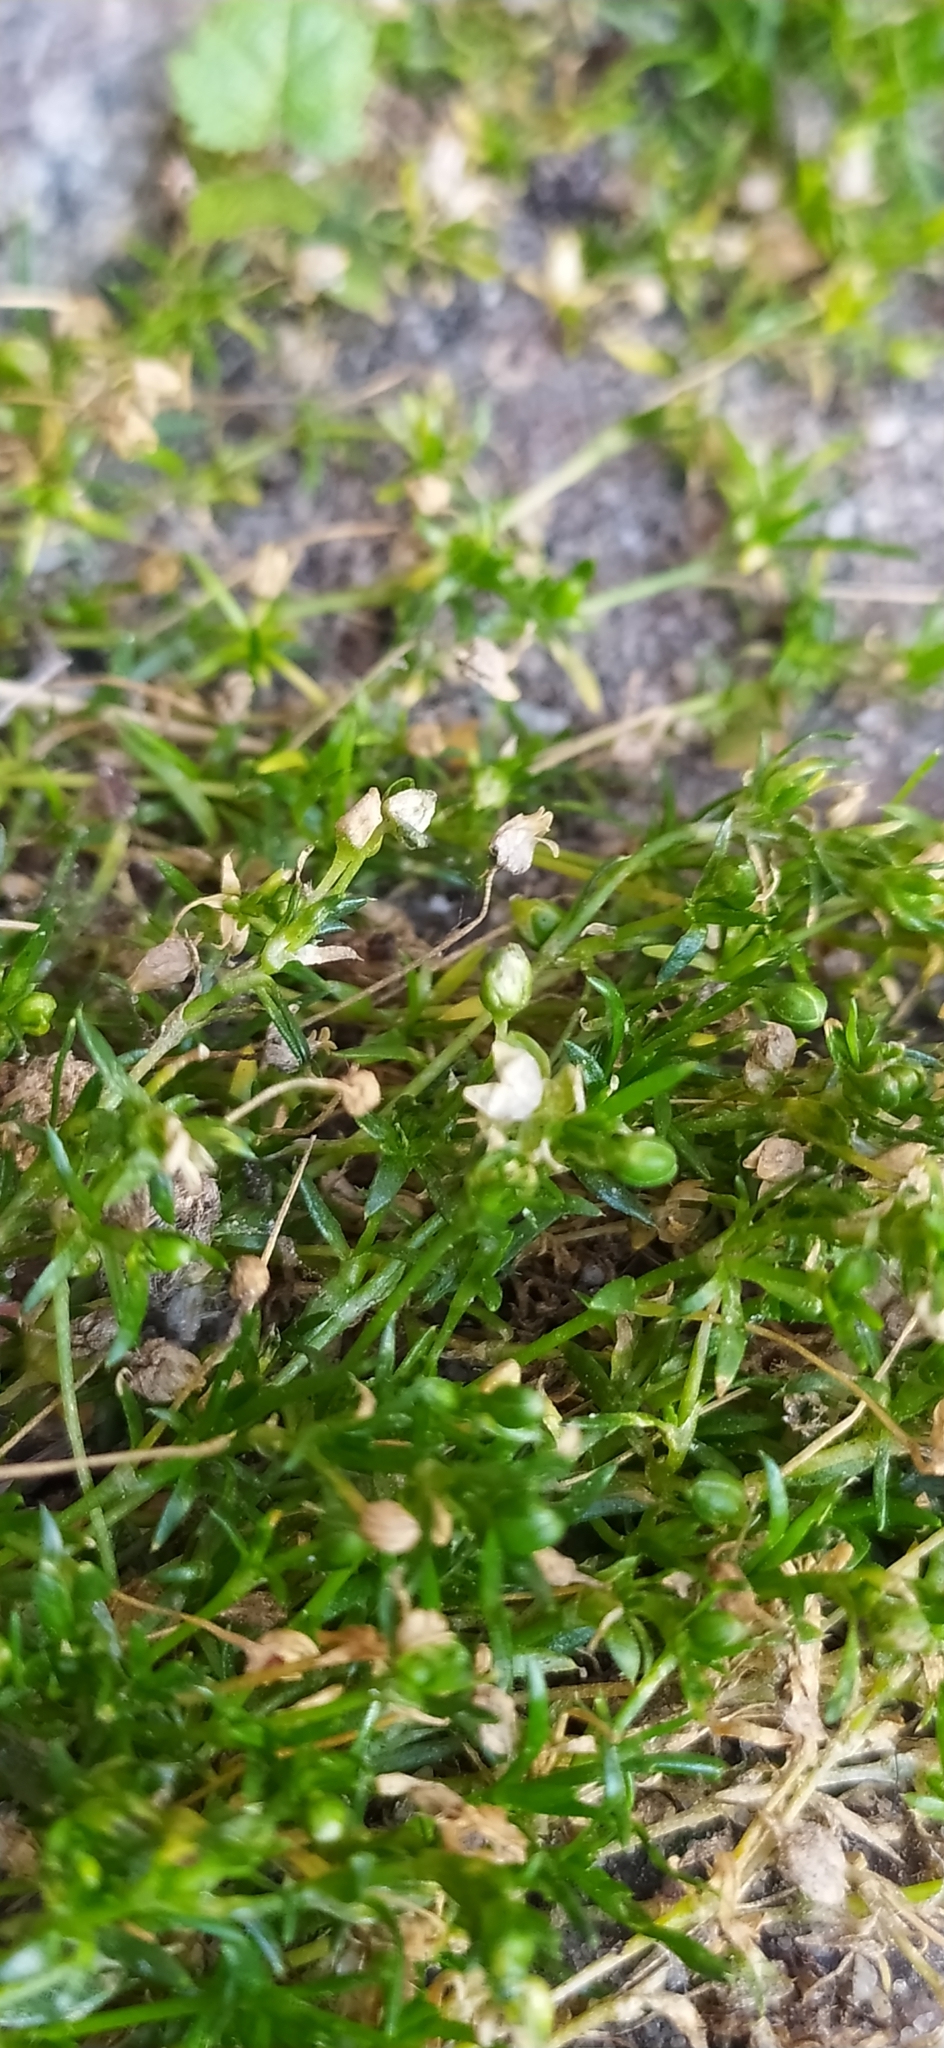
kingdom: Plantae
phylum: Tracheophyta
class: Magnoliopsida
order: Caryophyllales
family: Caryophyllaceae
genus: Sagina
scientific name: Sagina procumbens
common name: Procumbent pearlwort
